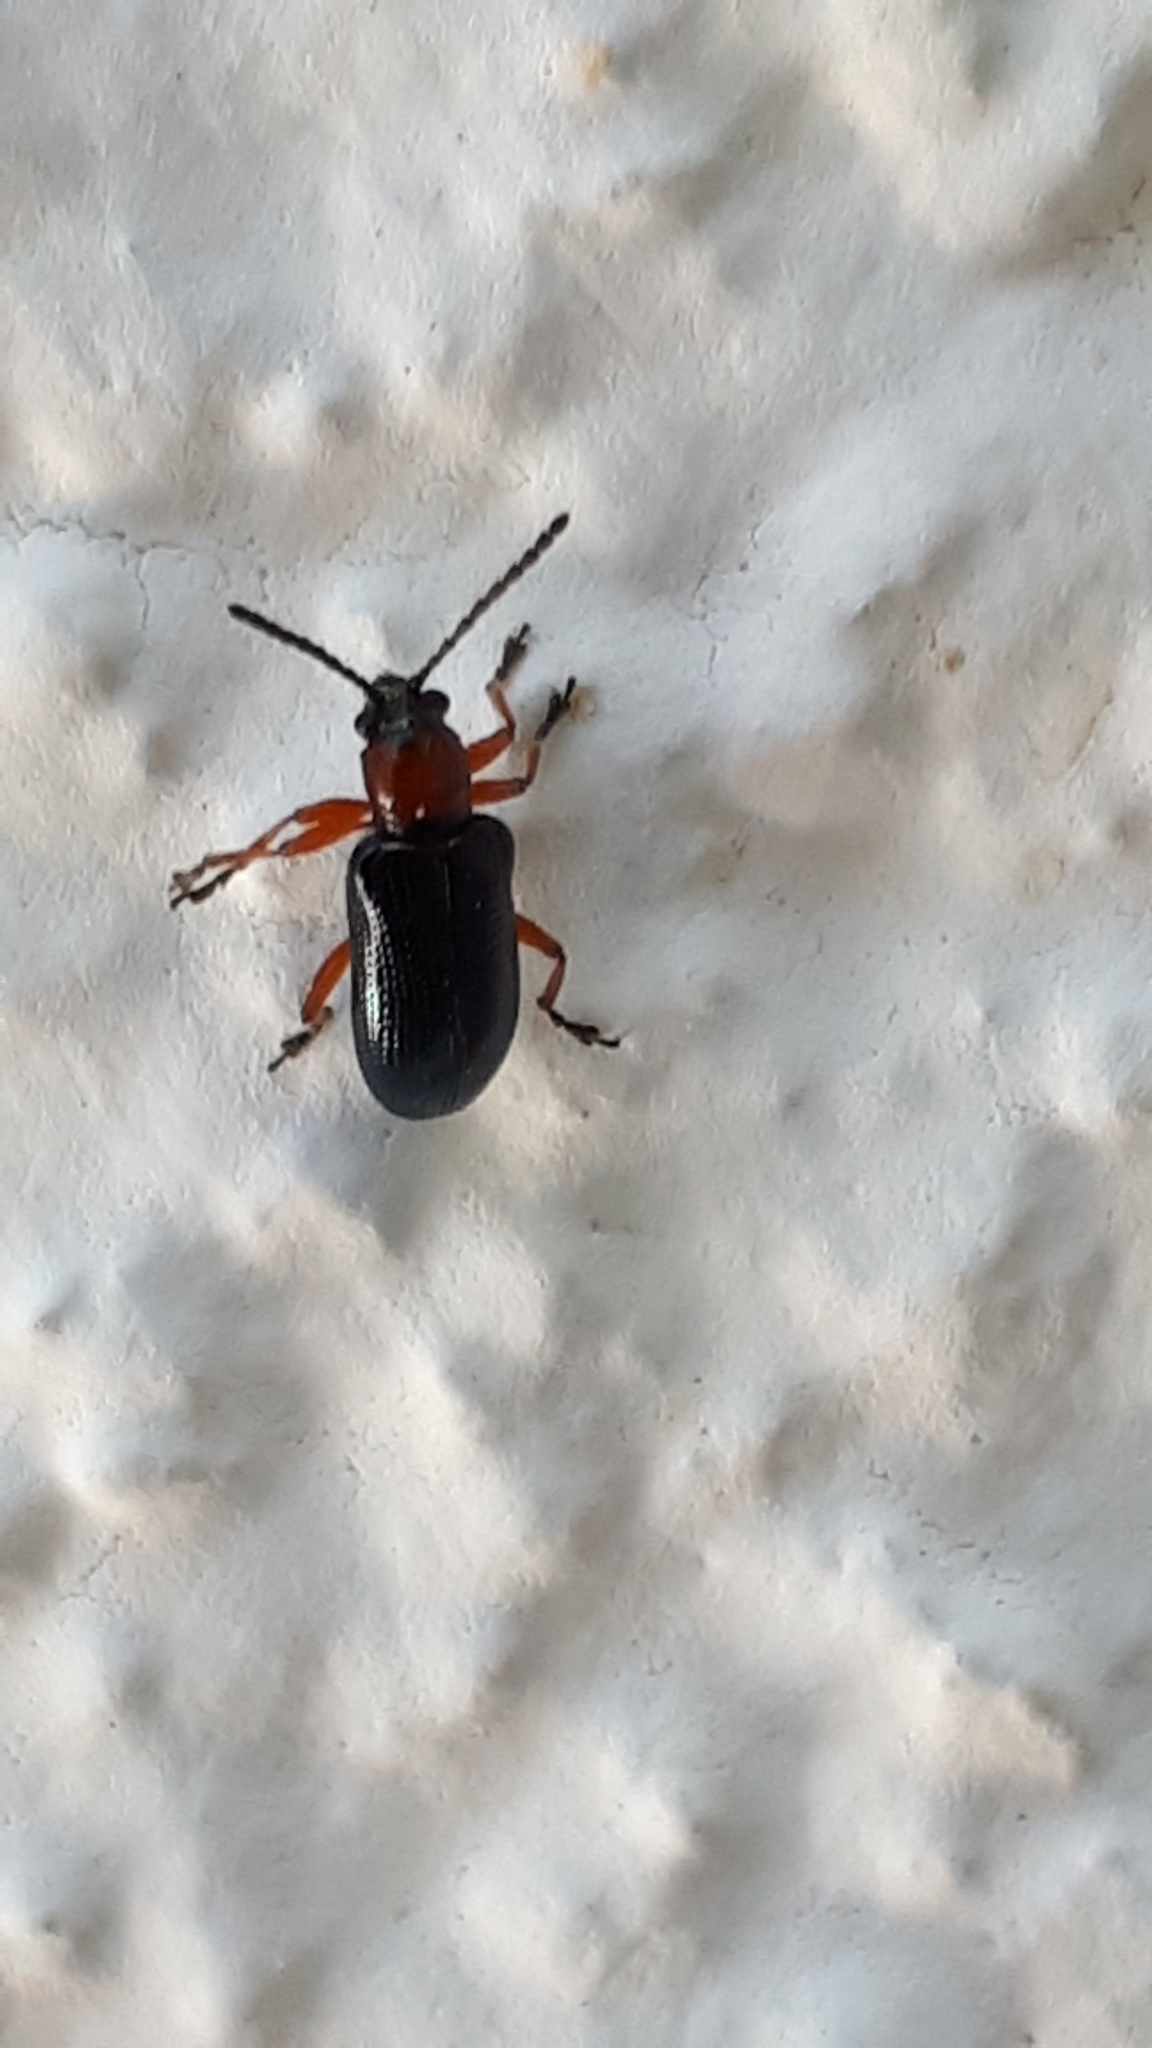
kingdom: Animalia
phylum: Arthropoda
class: Insecta
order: Coleoptera
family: Chrysomelidae
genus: Oulema
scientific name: Oulema
